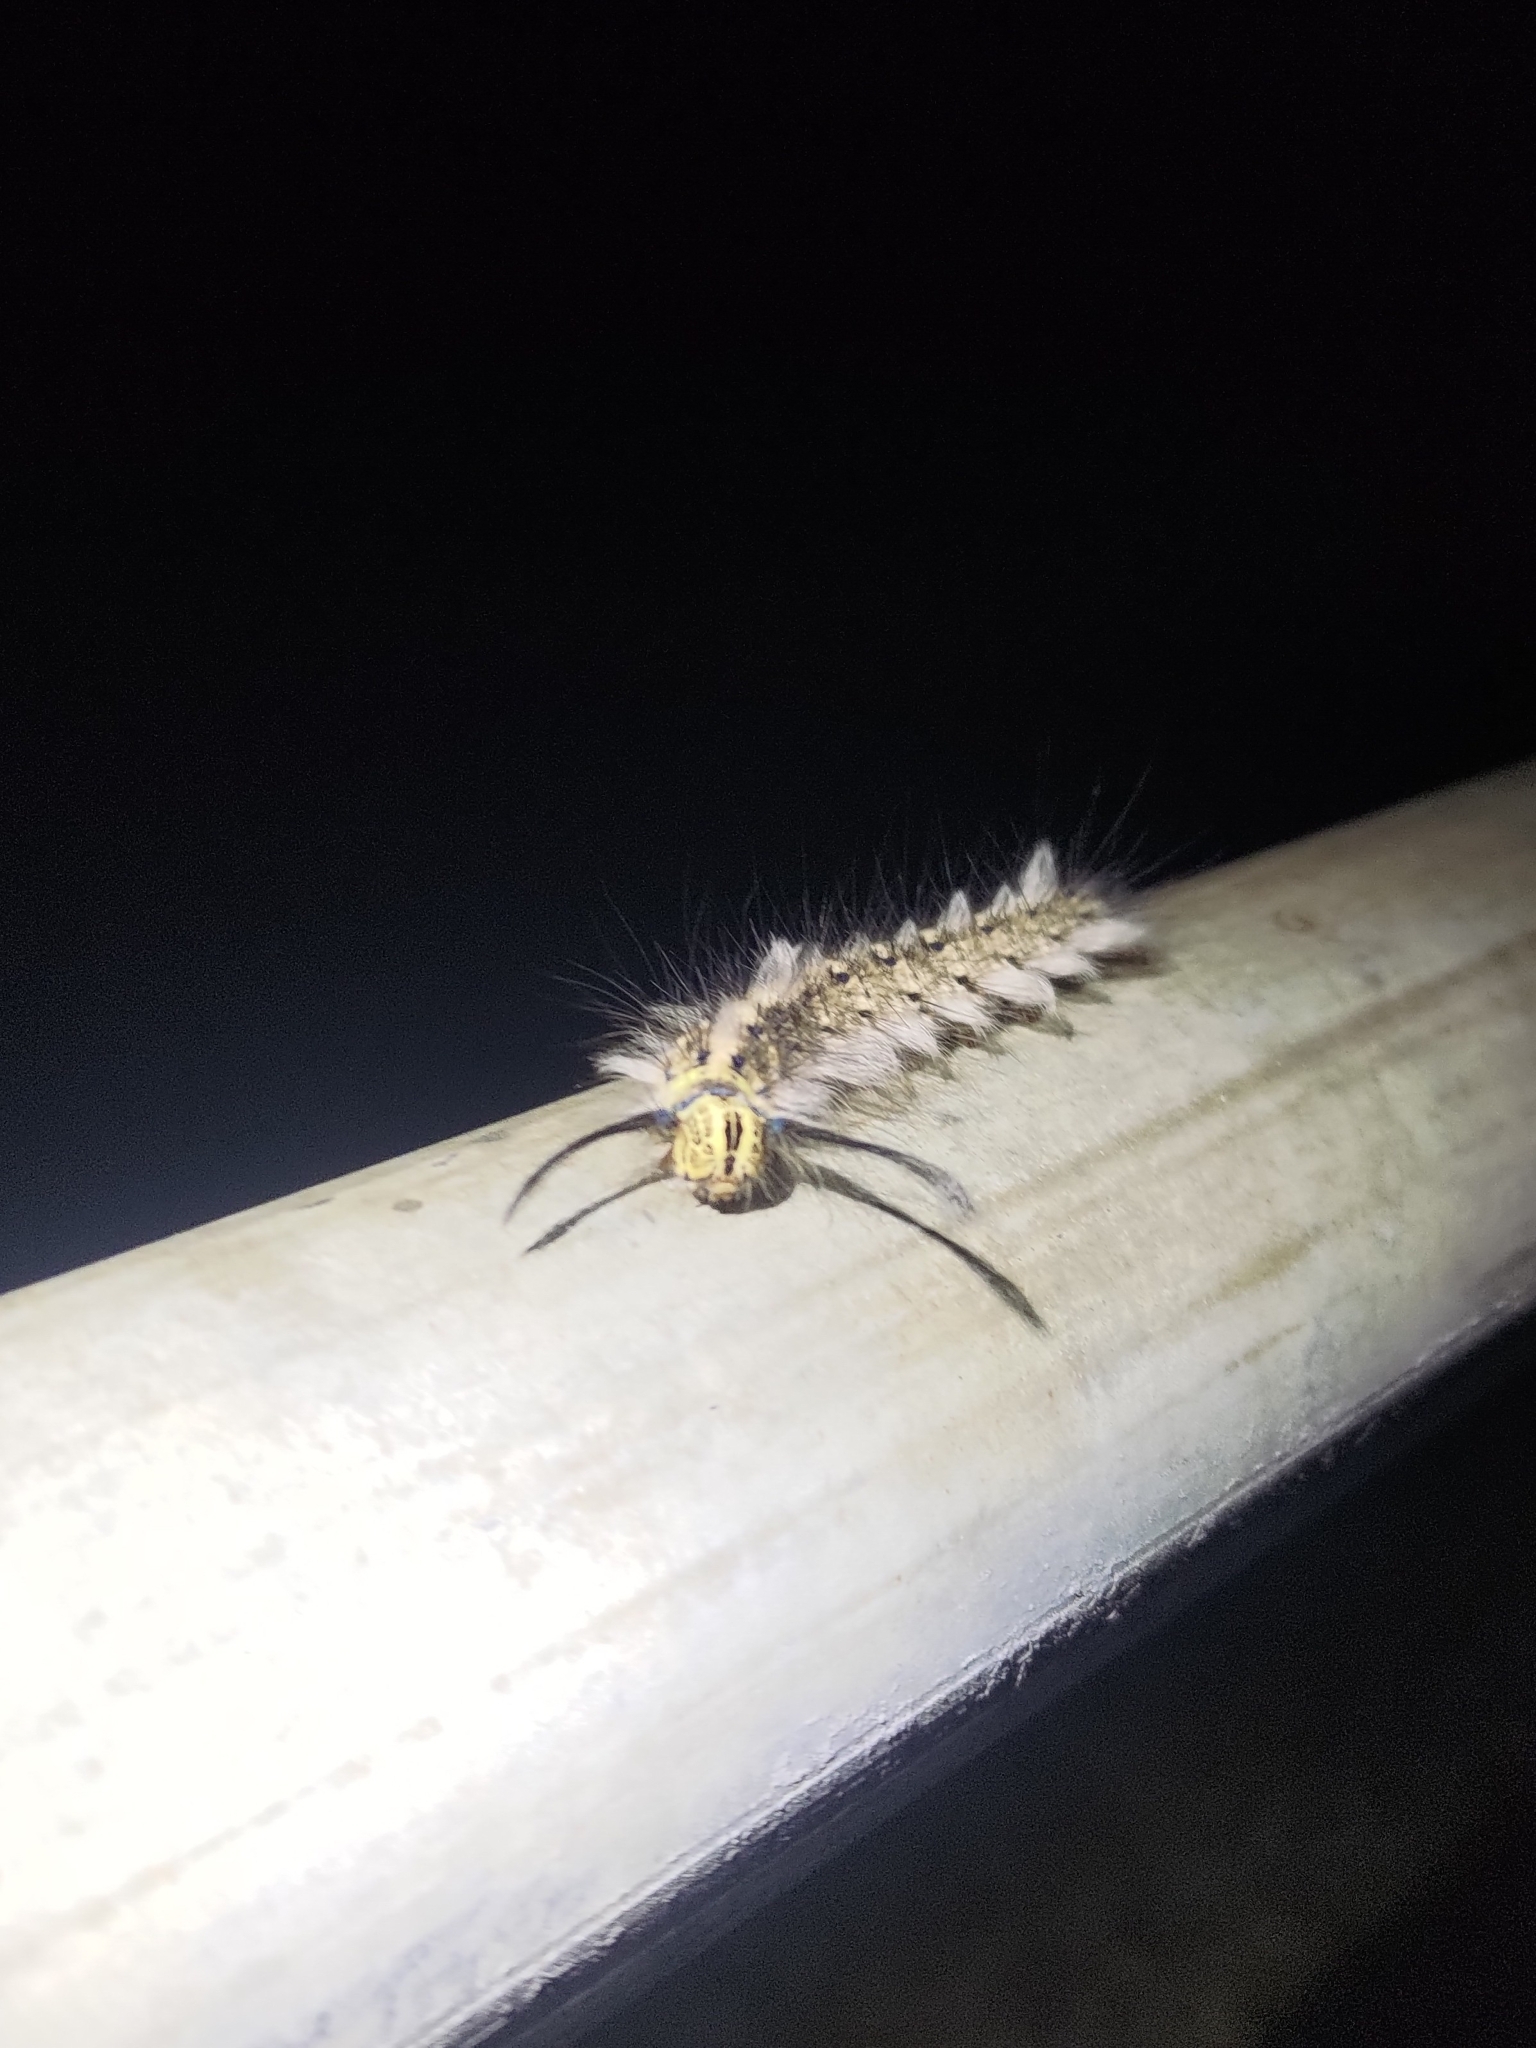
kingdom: Animalia
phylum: Arthropoda
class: Insecta
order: Lepidoptera
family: Lasiocampidae
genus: Trabala
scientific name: Trabala vishnou
